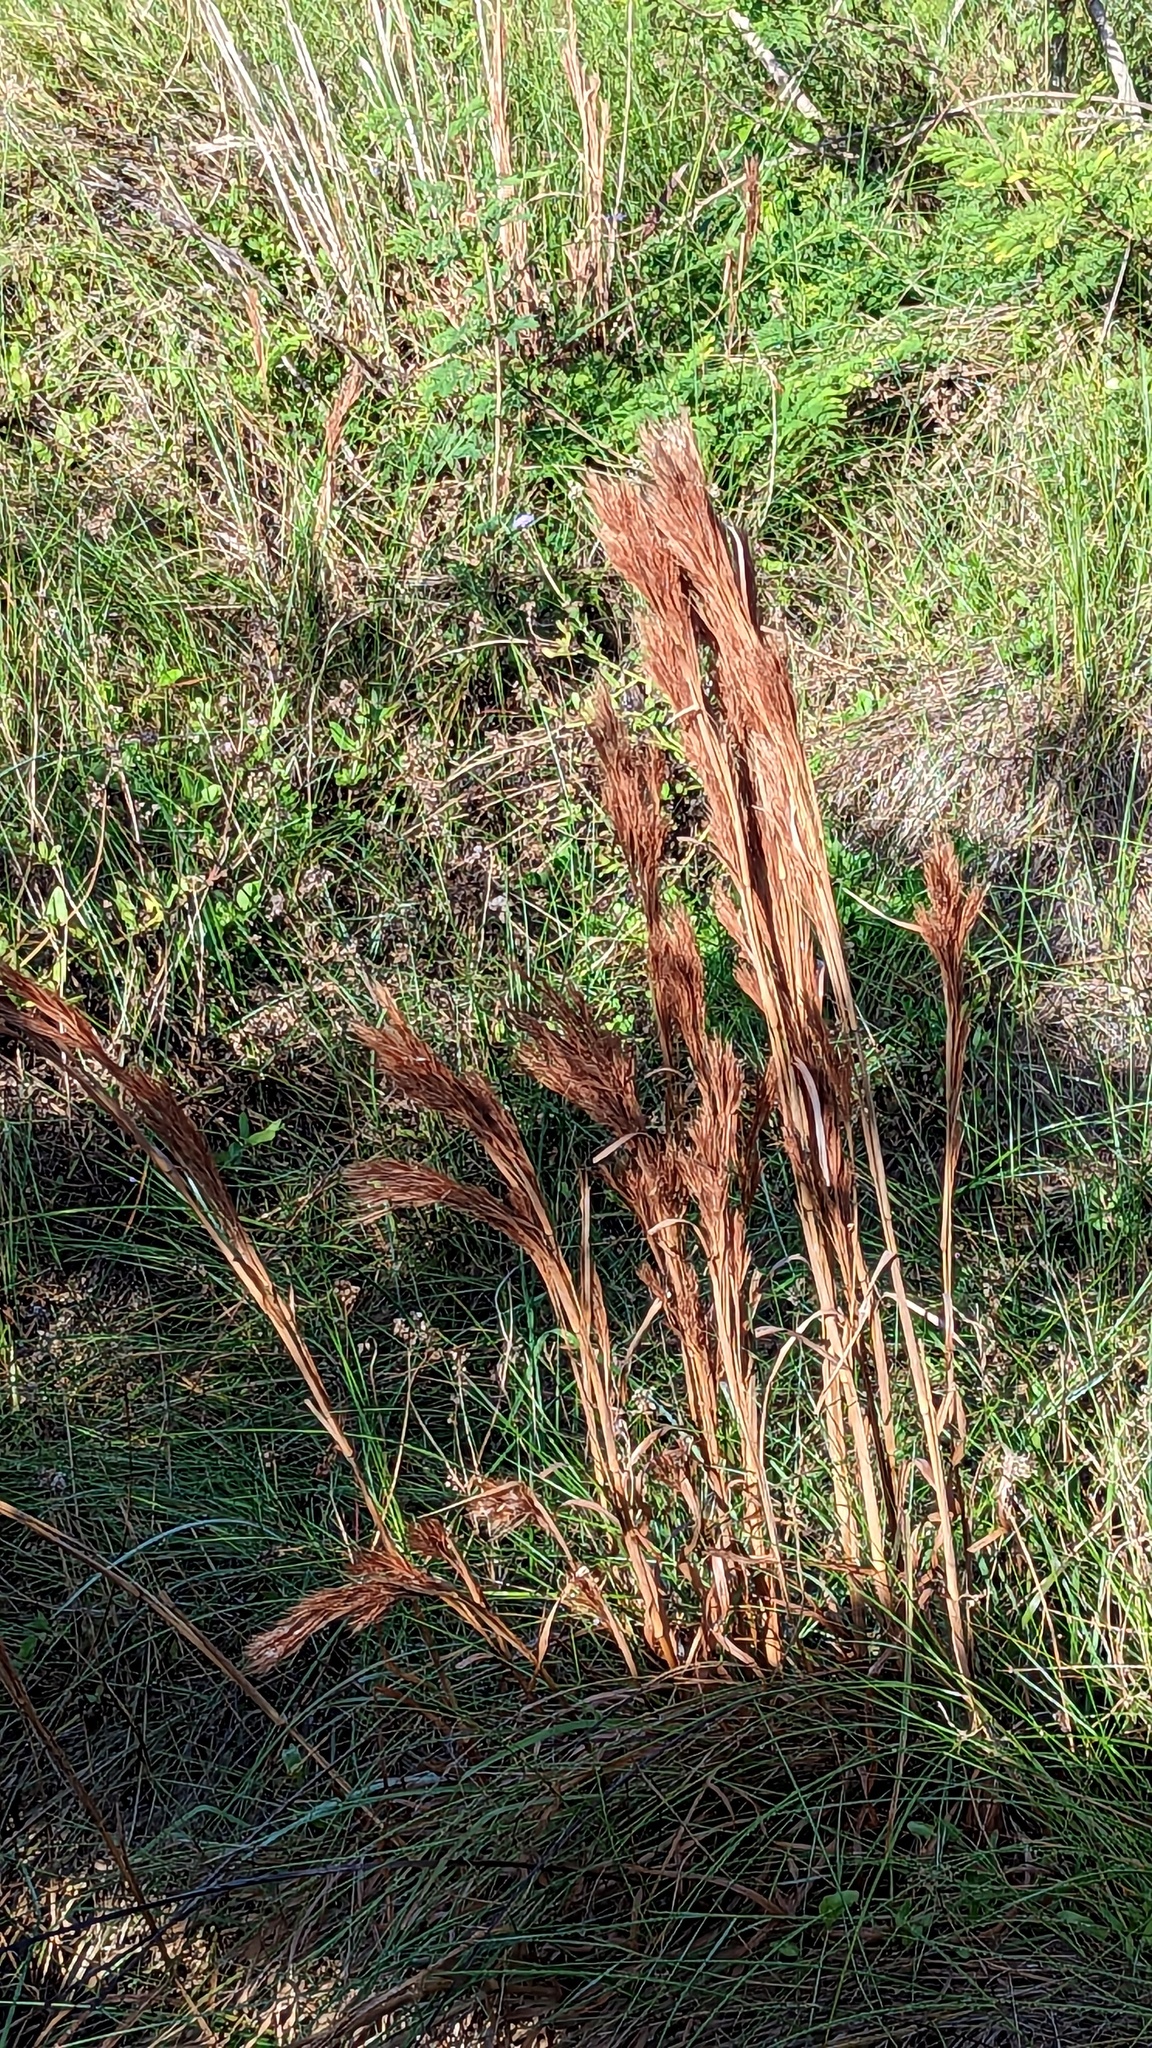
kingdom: Plantae
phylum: Tracheophyta
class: Liliopsida
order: Poales
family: Poaceae
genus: Andropogon
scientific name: Andropogon tenuispatheus
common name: Bushy bluestem
